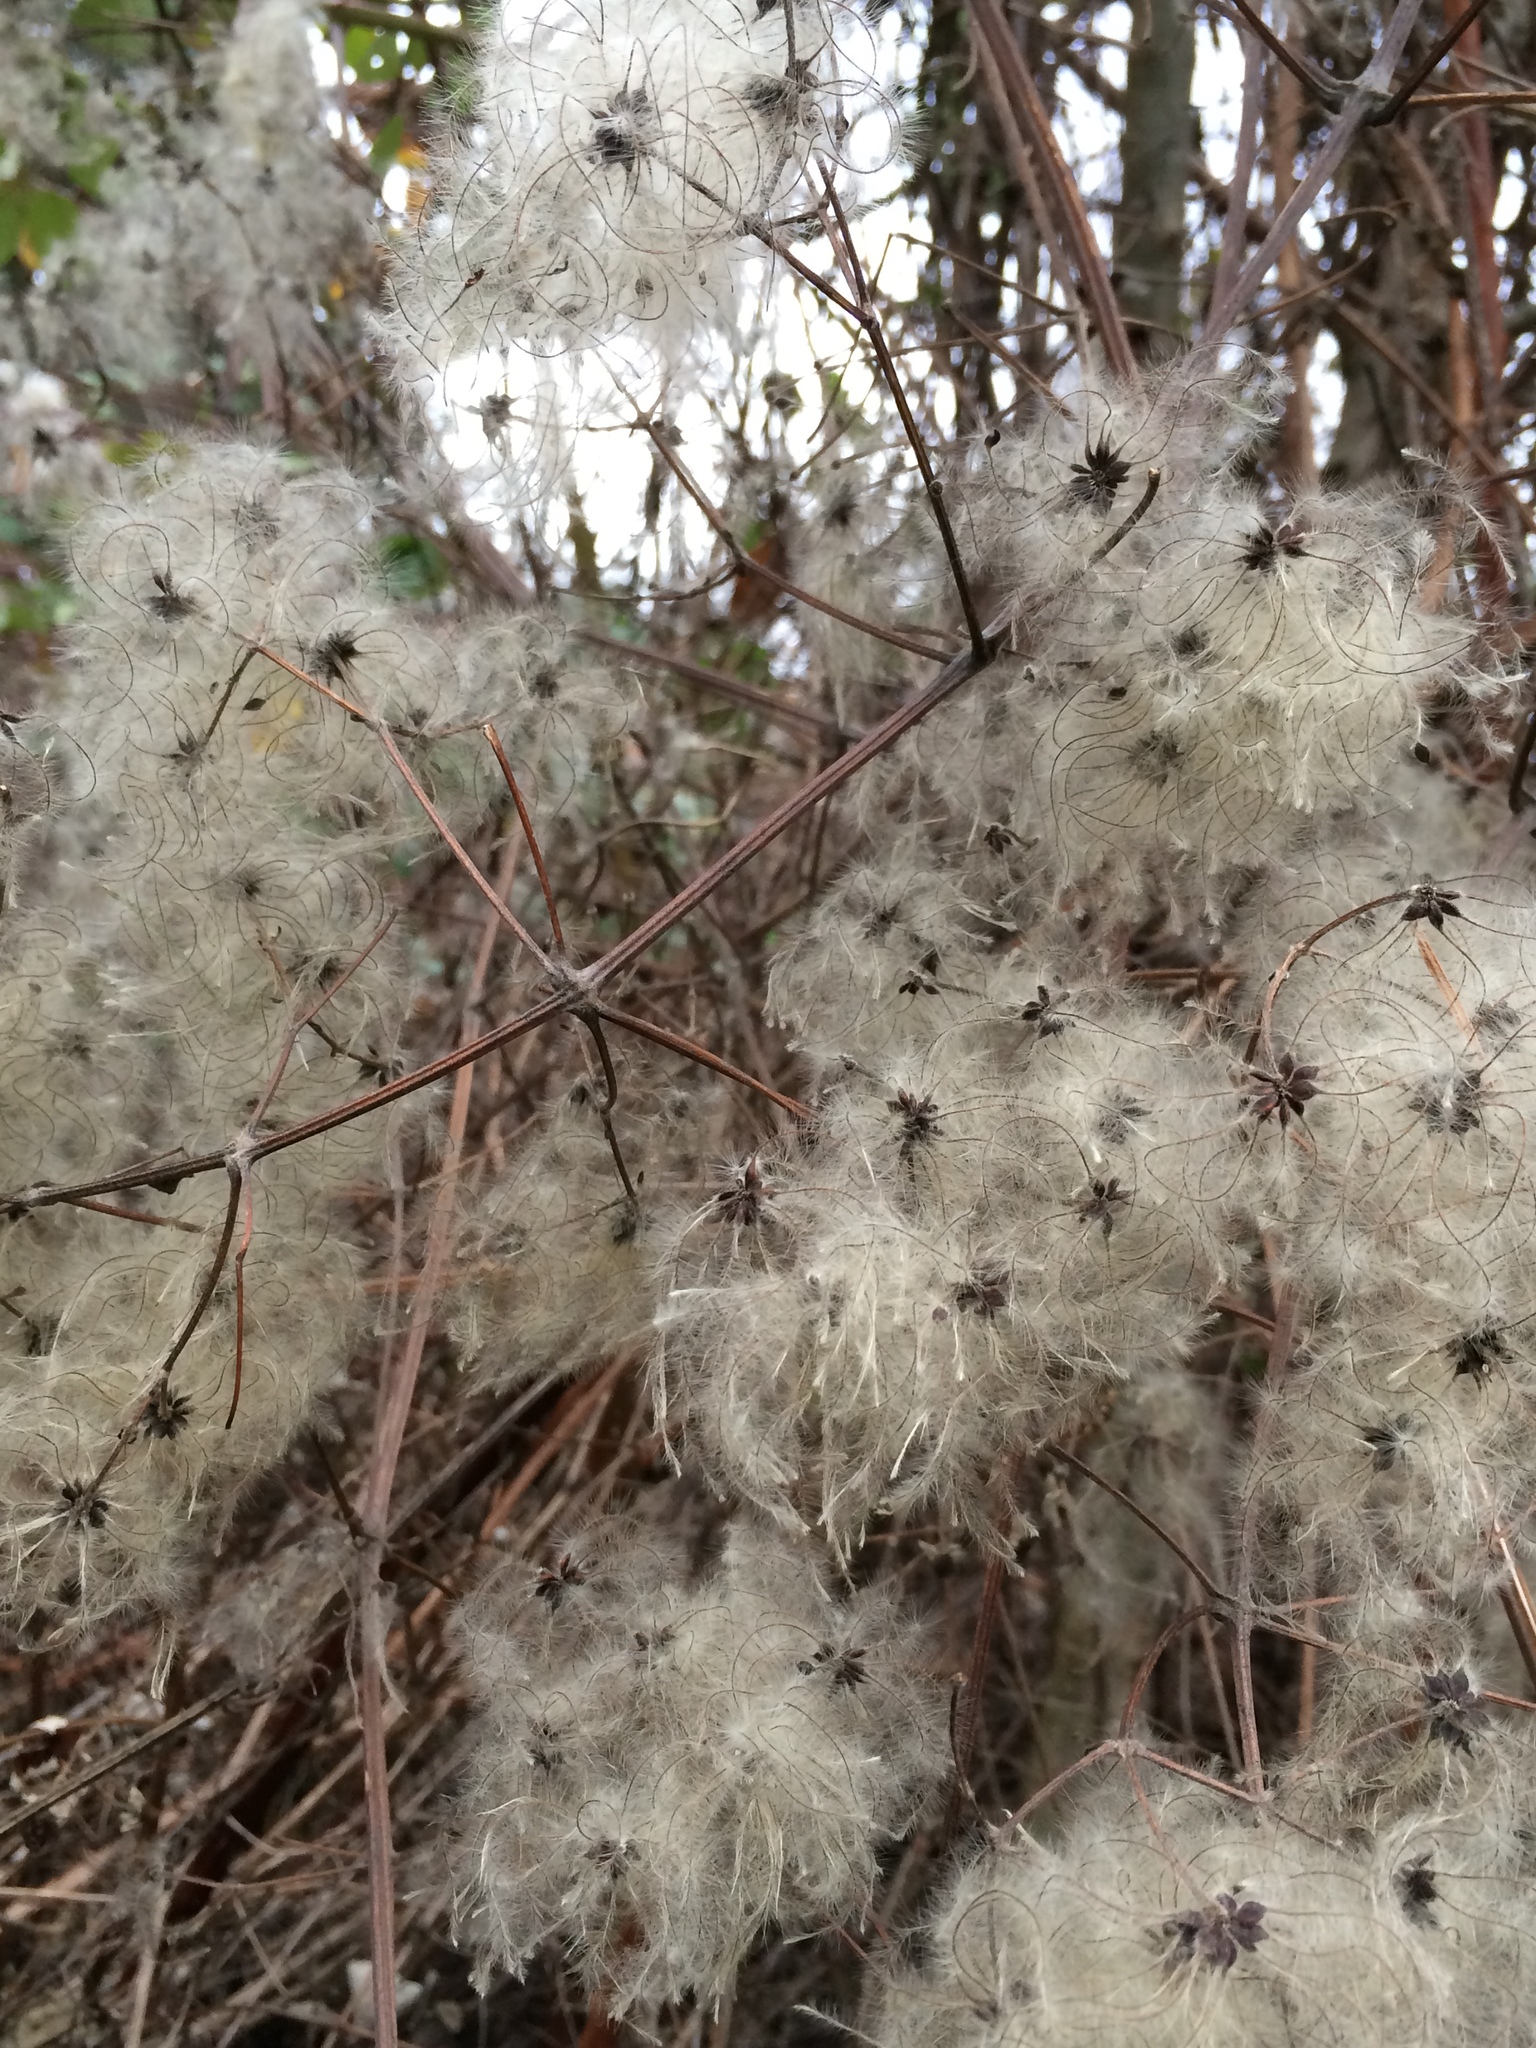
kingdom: Plantae
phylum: Tracheophyta
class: Magnoliopsida
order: Ranunculales
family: Ranunculaceae
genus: Clematis
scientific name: Clematis vitalba
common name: Evergreen clematis
